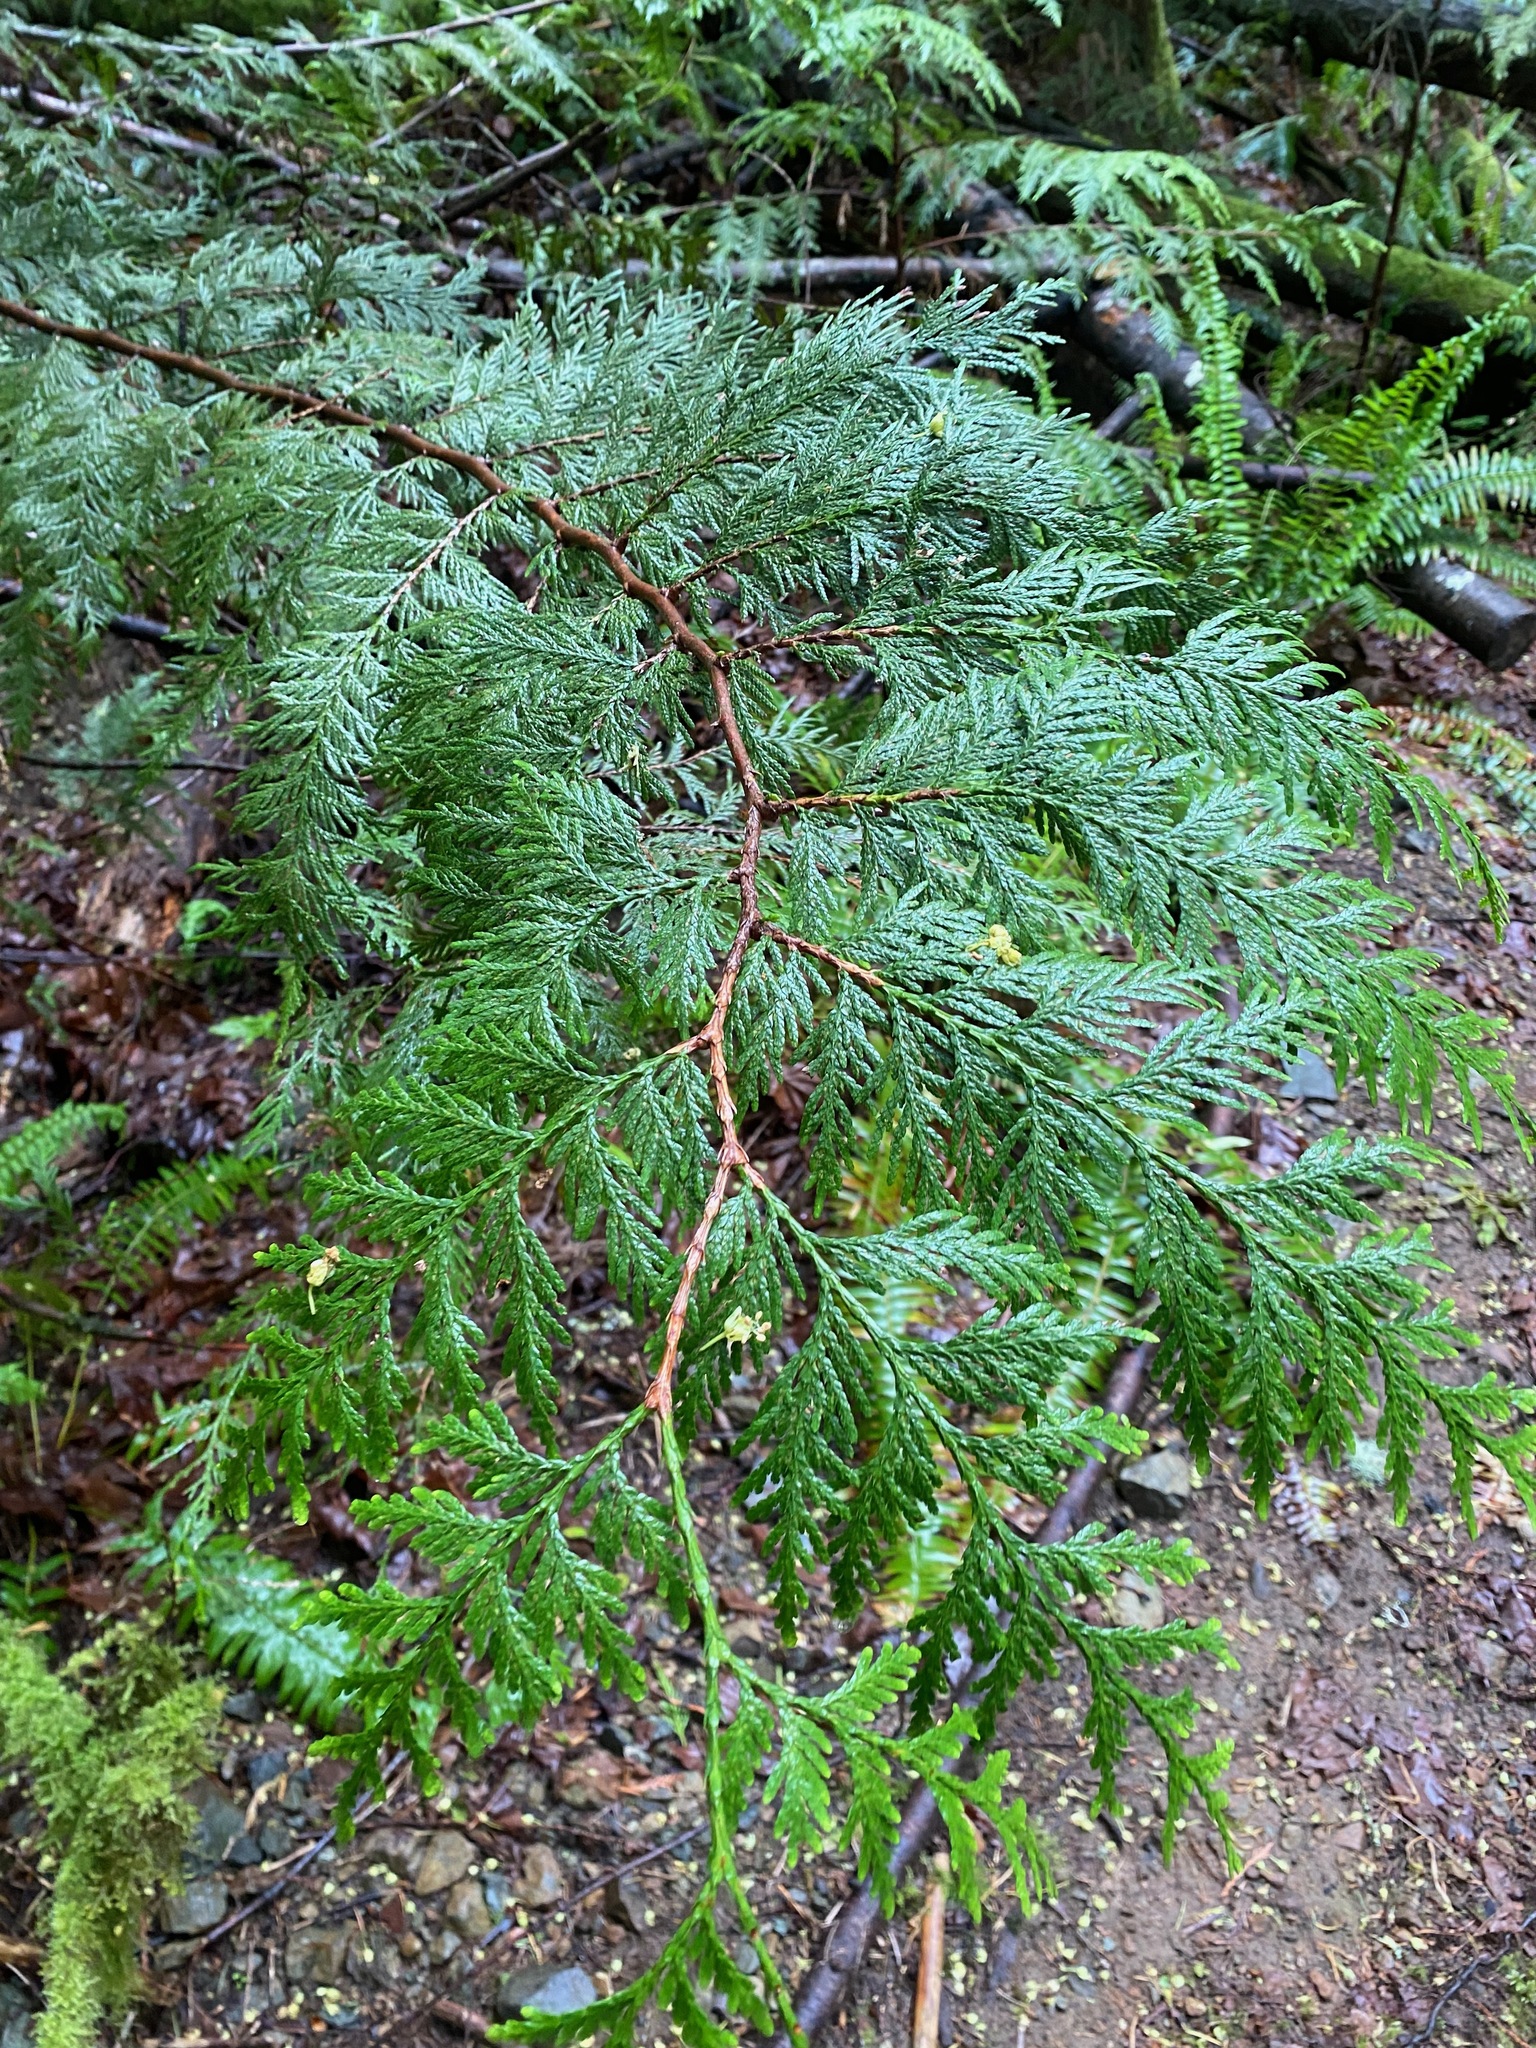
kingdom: Plantae
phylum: Tracheophyta
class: Pinopsida
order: Pinales
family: Cupressaceae
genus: Thuja
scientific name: Thuja plicata
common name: Western red-cedar
